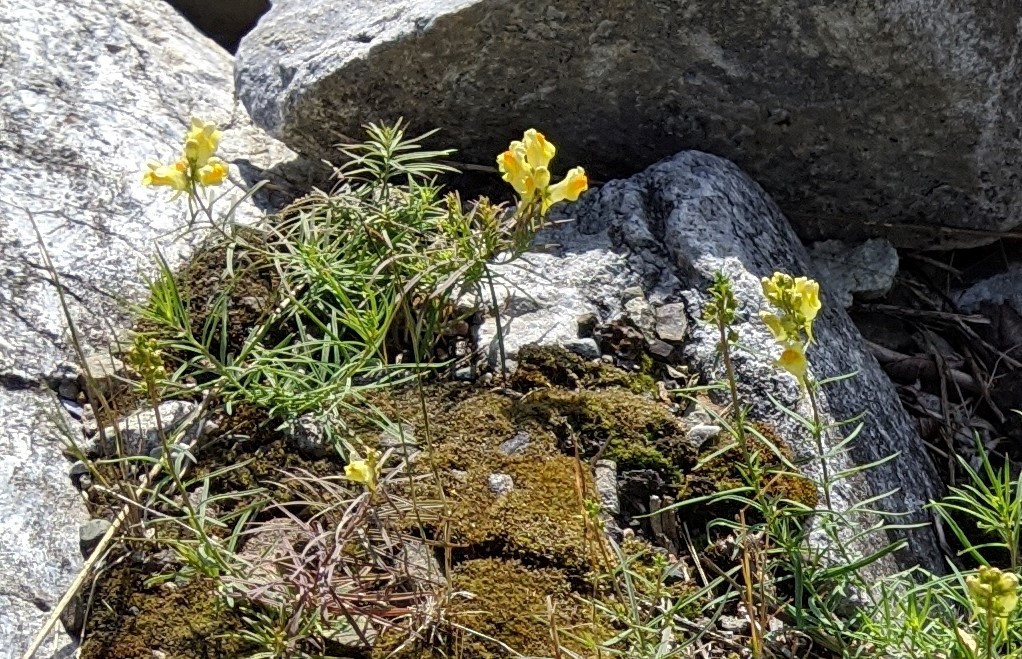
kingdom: Plantae
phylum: Tracheophyta
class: Magnoliopsida
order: Lamiales
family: Plantaginaceae
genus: Linaria
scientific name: Linaria vulgaris
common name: Butter and eggs
